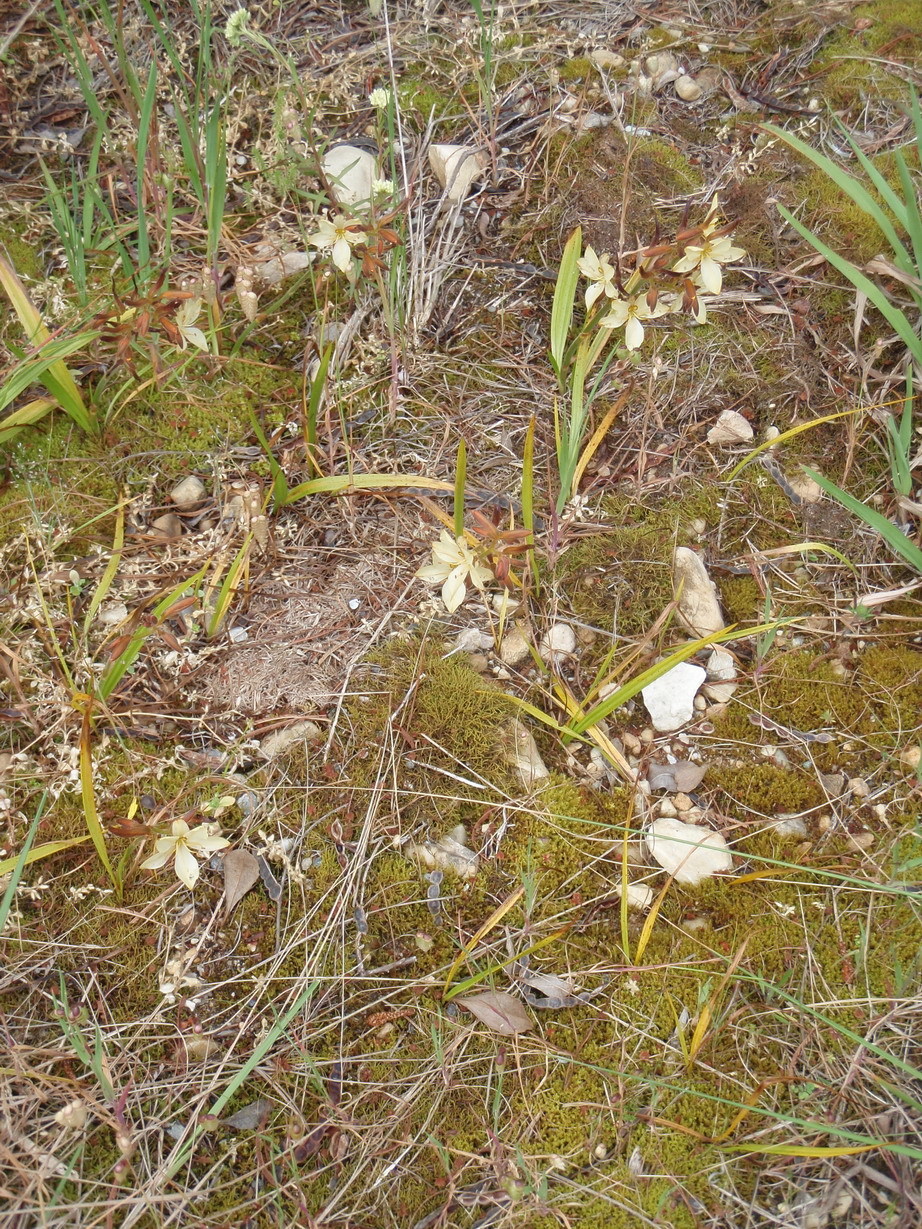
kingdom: Plantae
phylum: Tracheophyta
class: Liliopsida
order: Commelinales
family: Haemodoraceae
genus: Wachendorfia
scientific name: Wachendorfia paniculata
